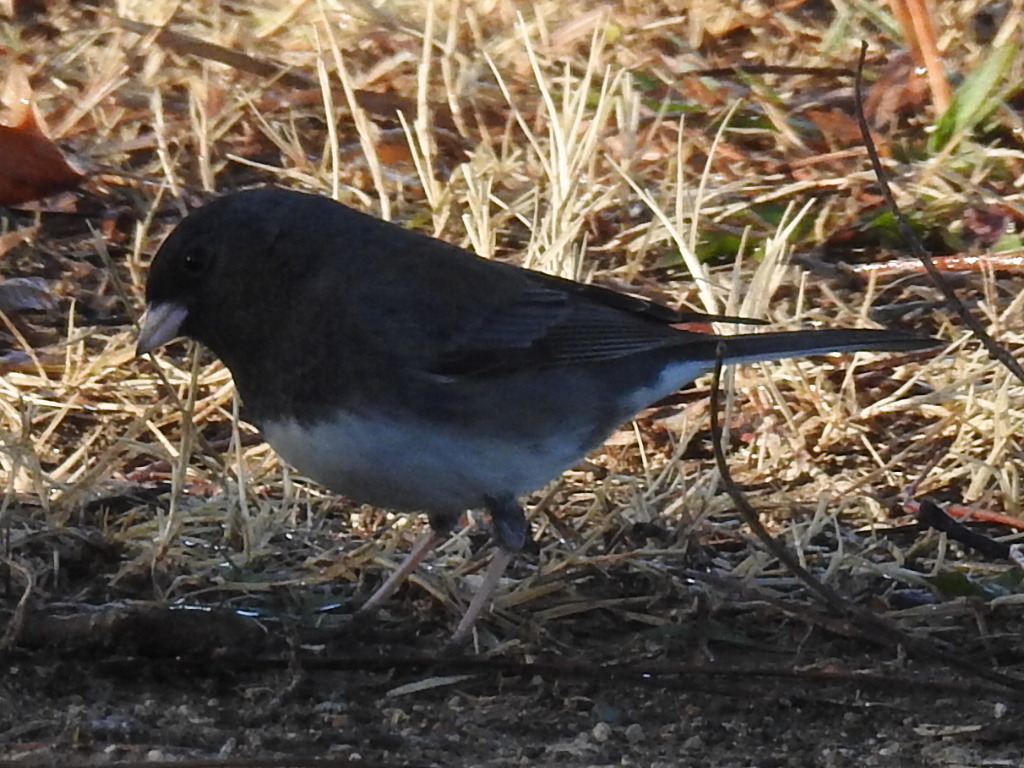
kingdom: Animalia
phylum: Chordata
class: Aves
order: Passeriformes
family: Passerellidae
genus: Junco
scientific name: Junco hyemalis
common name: Dark-eyed junco
